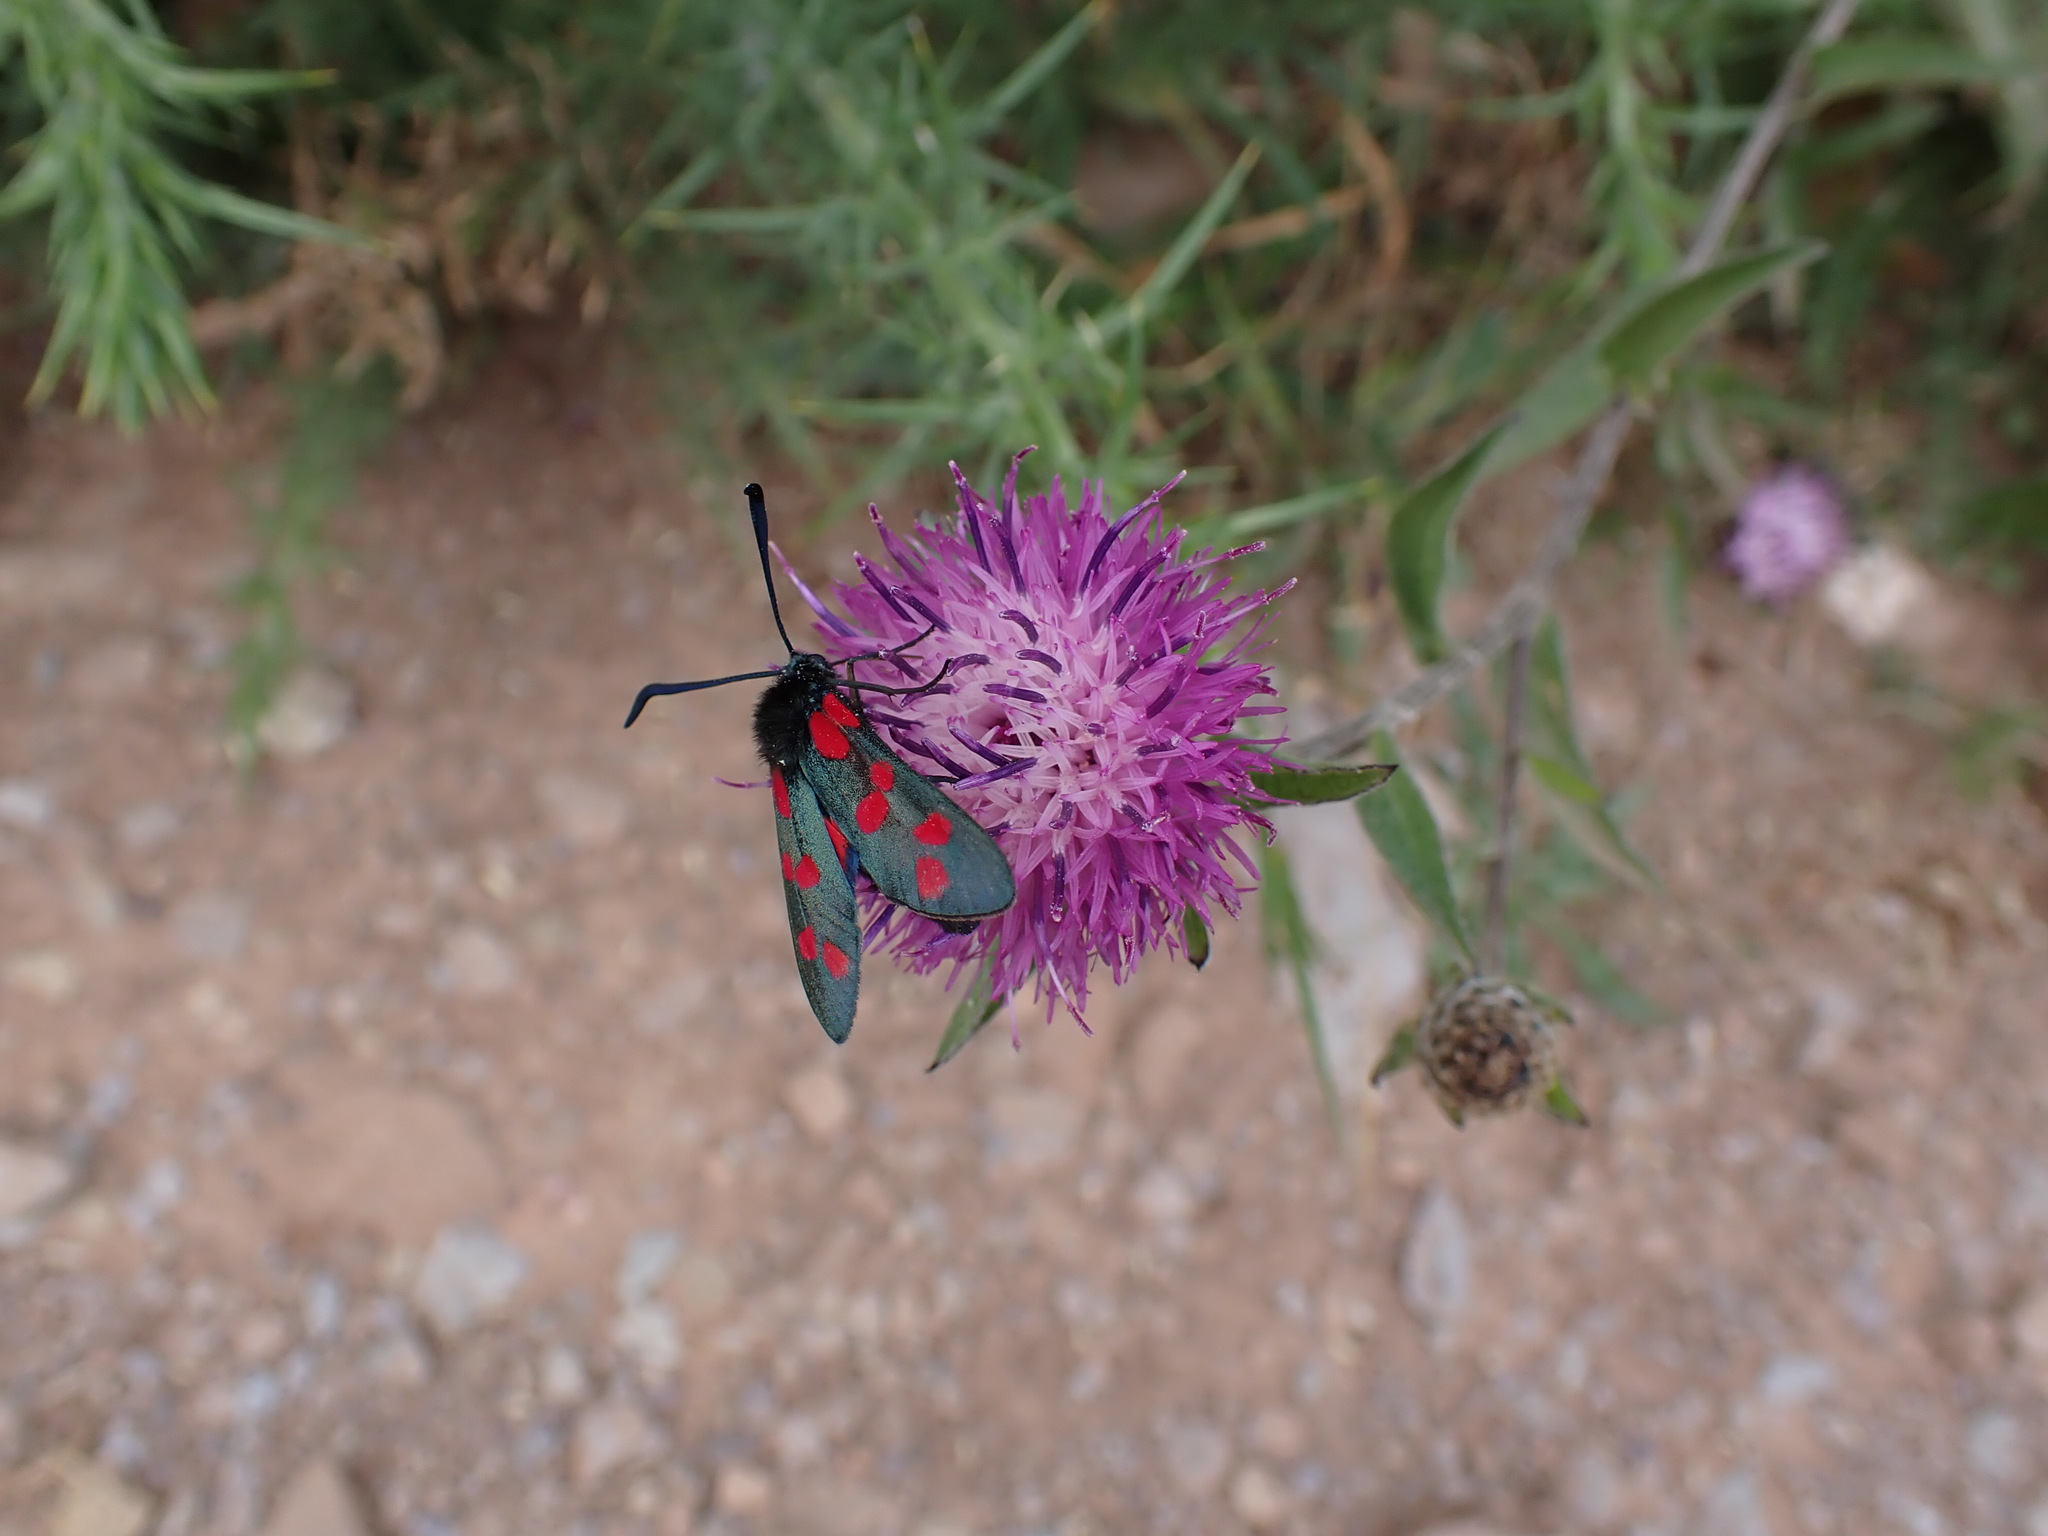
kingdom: Animalia
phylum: Arthropoda
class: Insecta
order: Lepidoptera
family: Zygaenidae
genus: Zygaena
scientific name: Zygaena filipendulae
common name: Six-spot burnet
